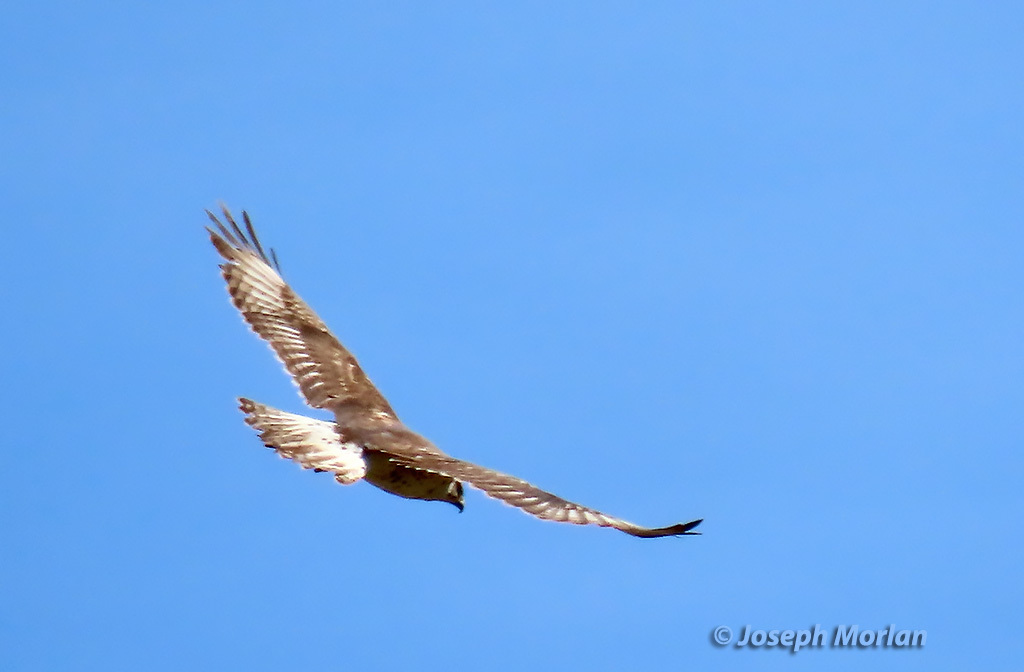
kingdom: Animalia
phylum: Chordata
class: Aves
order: Accipitriformes
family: Accipitridae
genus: Buteo
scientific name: Buteo regalis
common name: Ferruginous hawk
